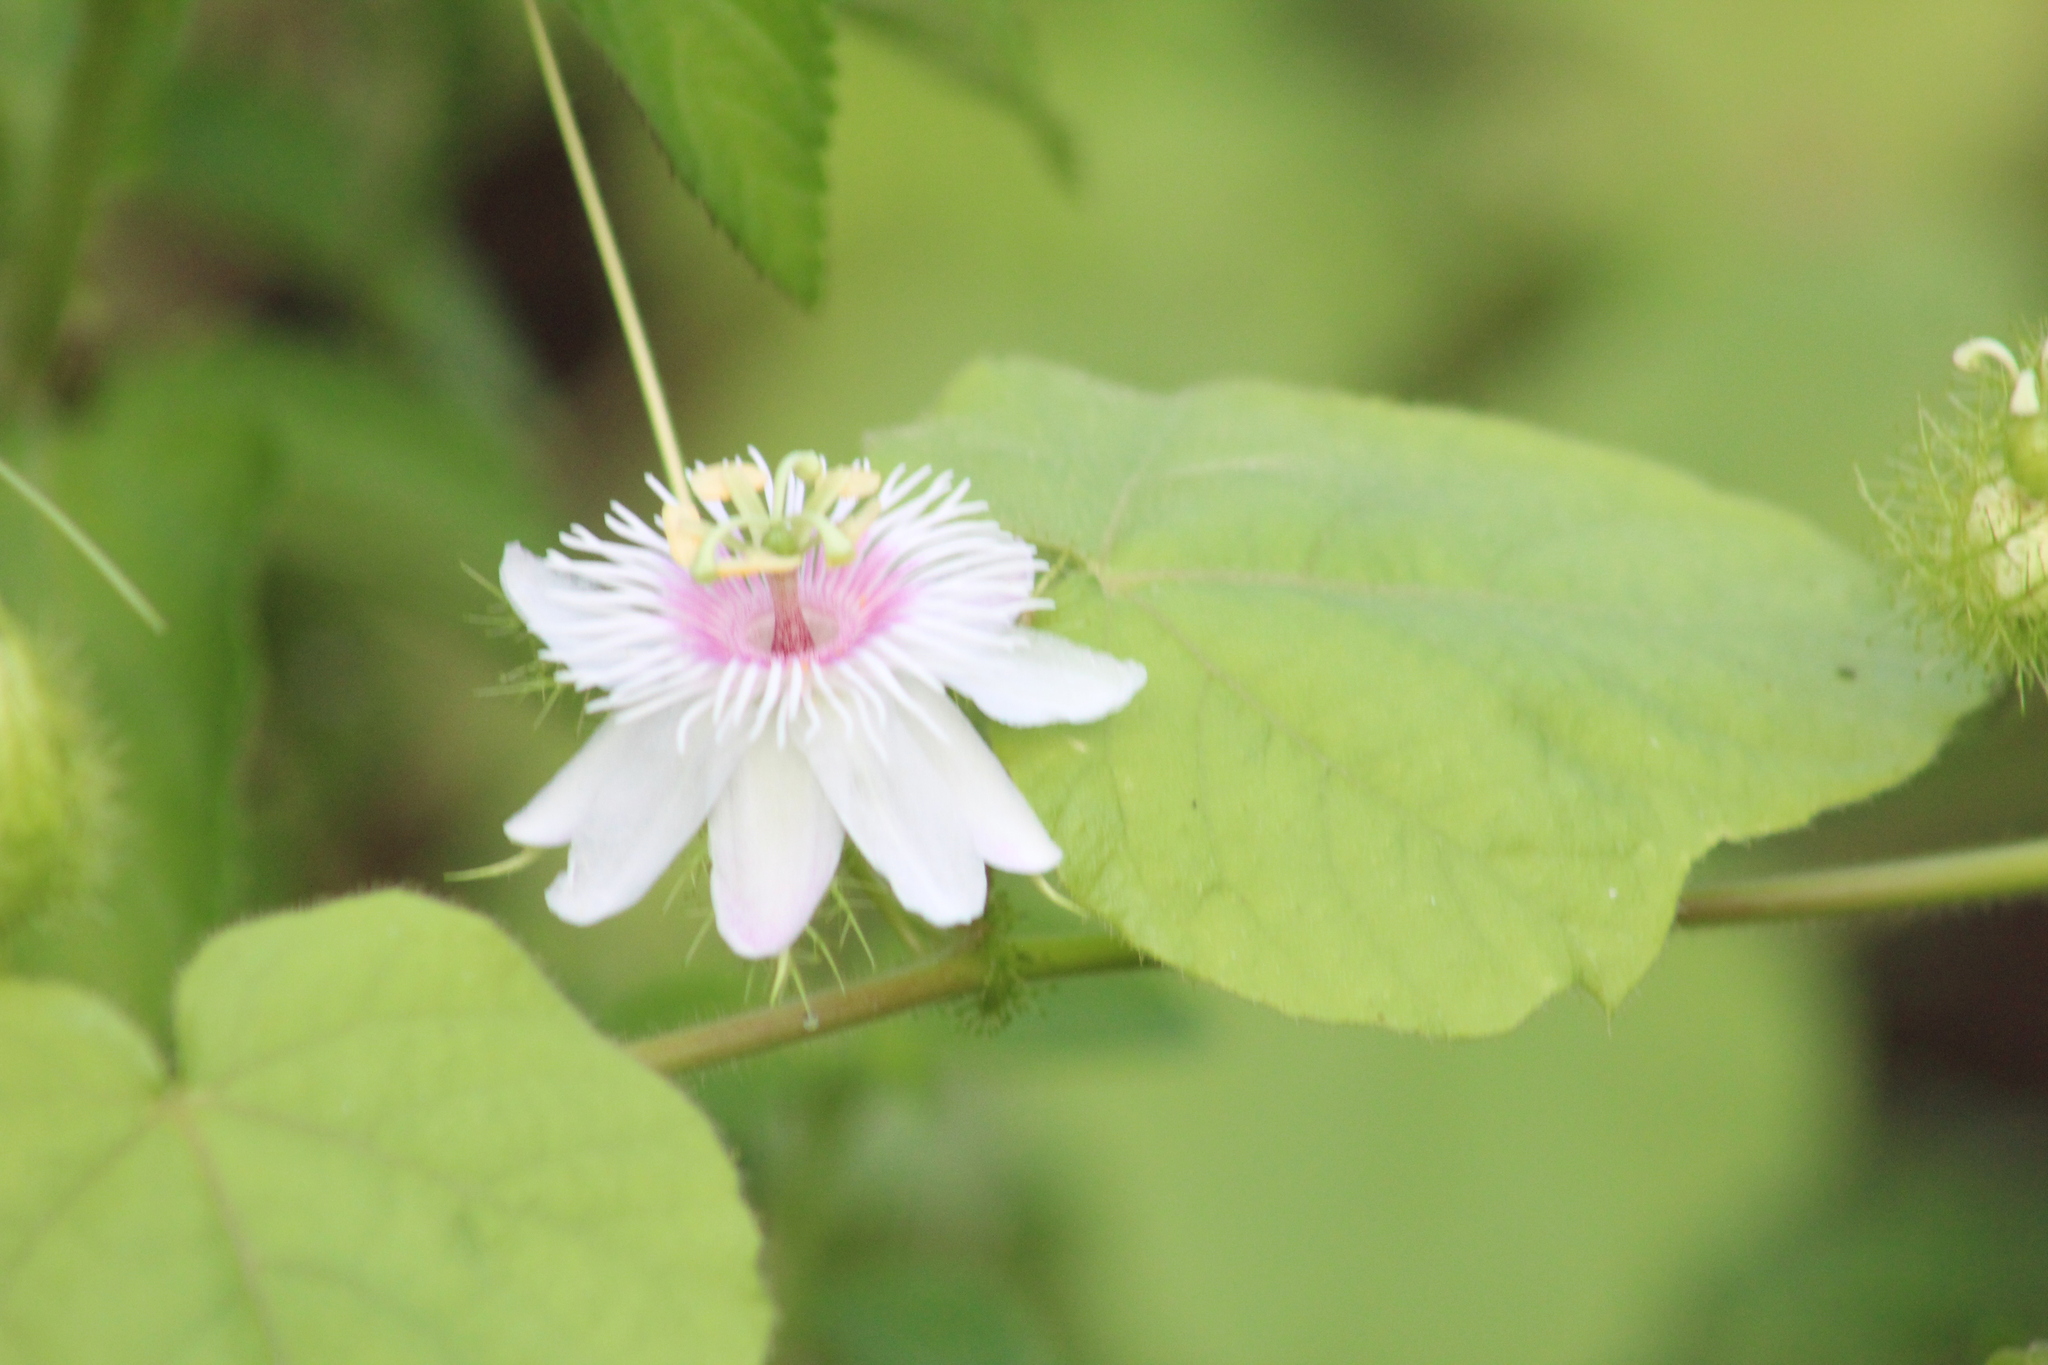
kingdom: Plantae
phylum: Tracheophyta
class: Magnoliopsida
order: Malpighiales
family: Passifloraceae
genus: Passiflora
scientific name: Passiflora vesicaria
